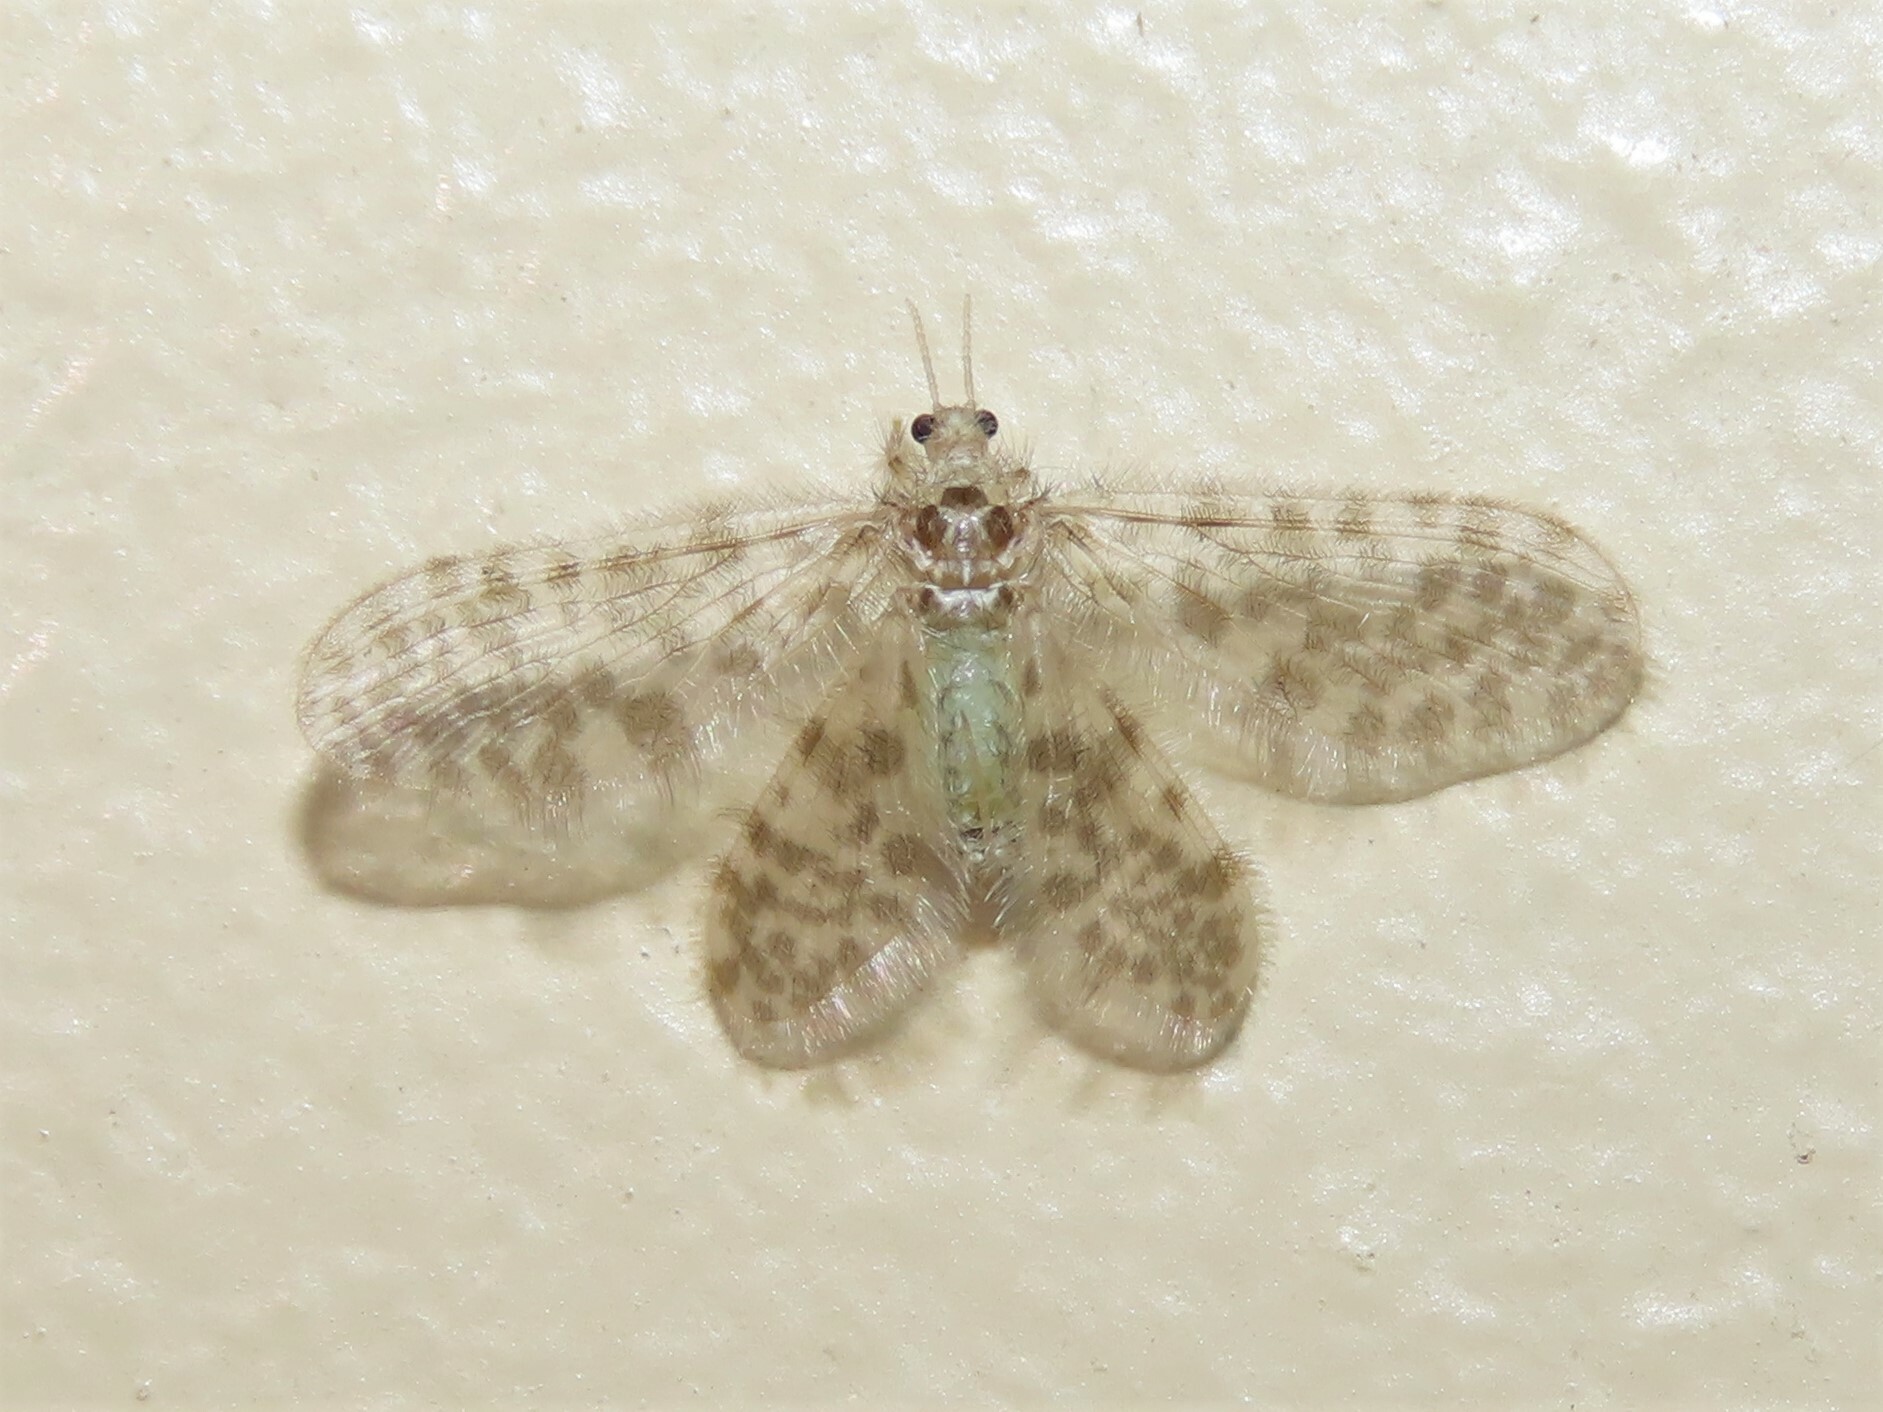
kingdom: Animalia
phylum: Arthropoda
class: Insecta
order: Neuroptera
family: Dilaridae
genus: Nallachius
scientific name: Nallachius americanus
